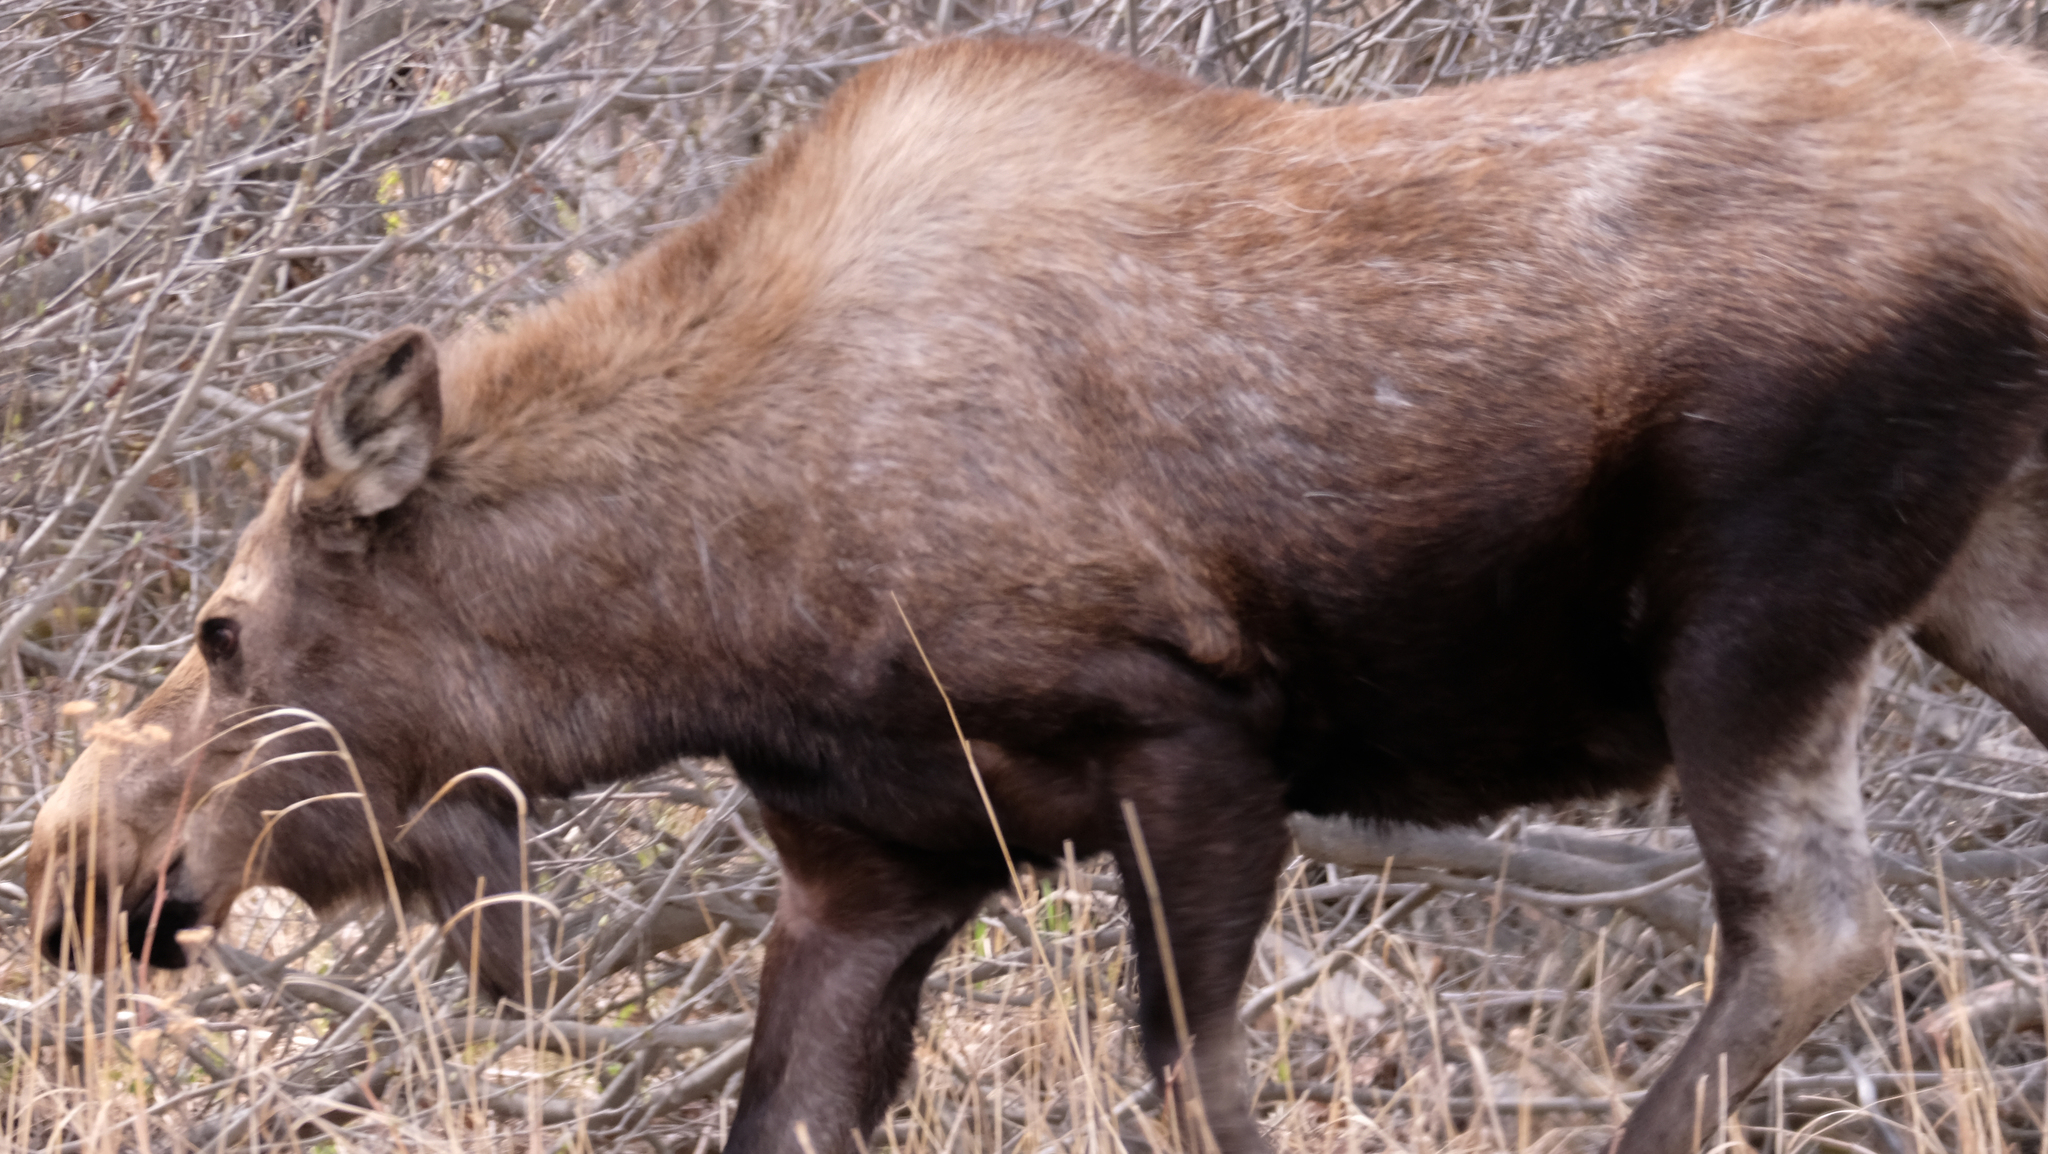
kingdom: Animalia
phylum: Chordata
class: Mammalia
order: Artiodactyla
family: Cervidae
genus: Alces
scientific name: Alces alces
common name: Moose
